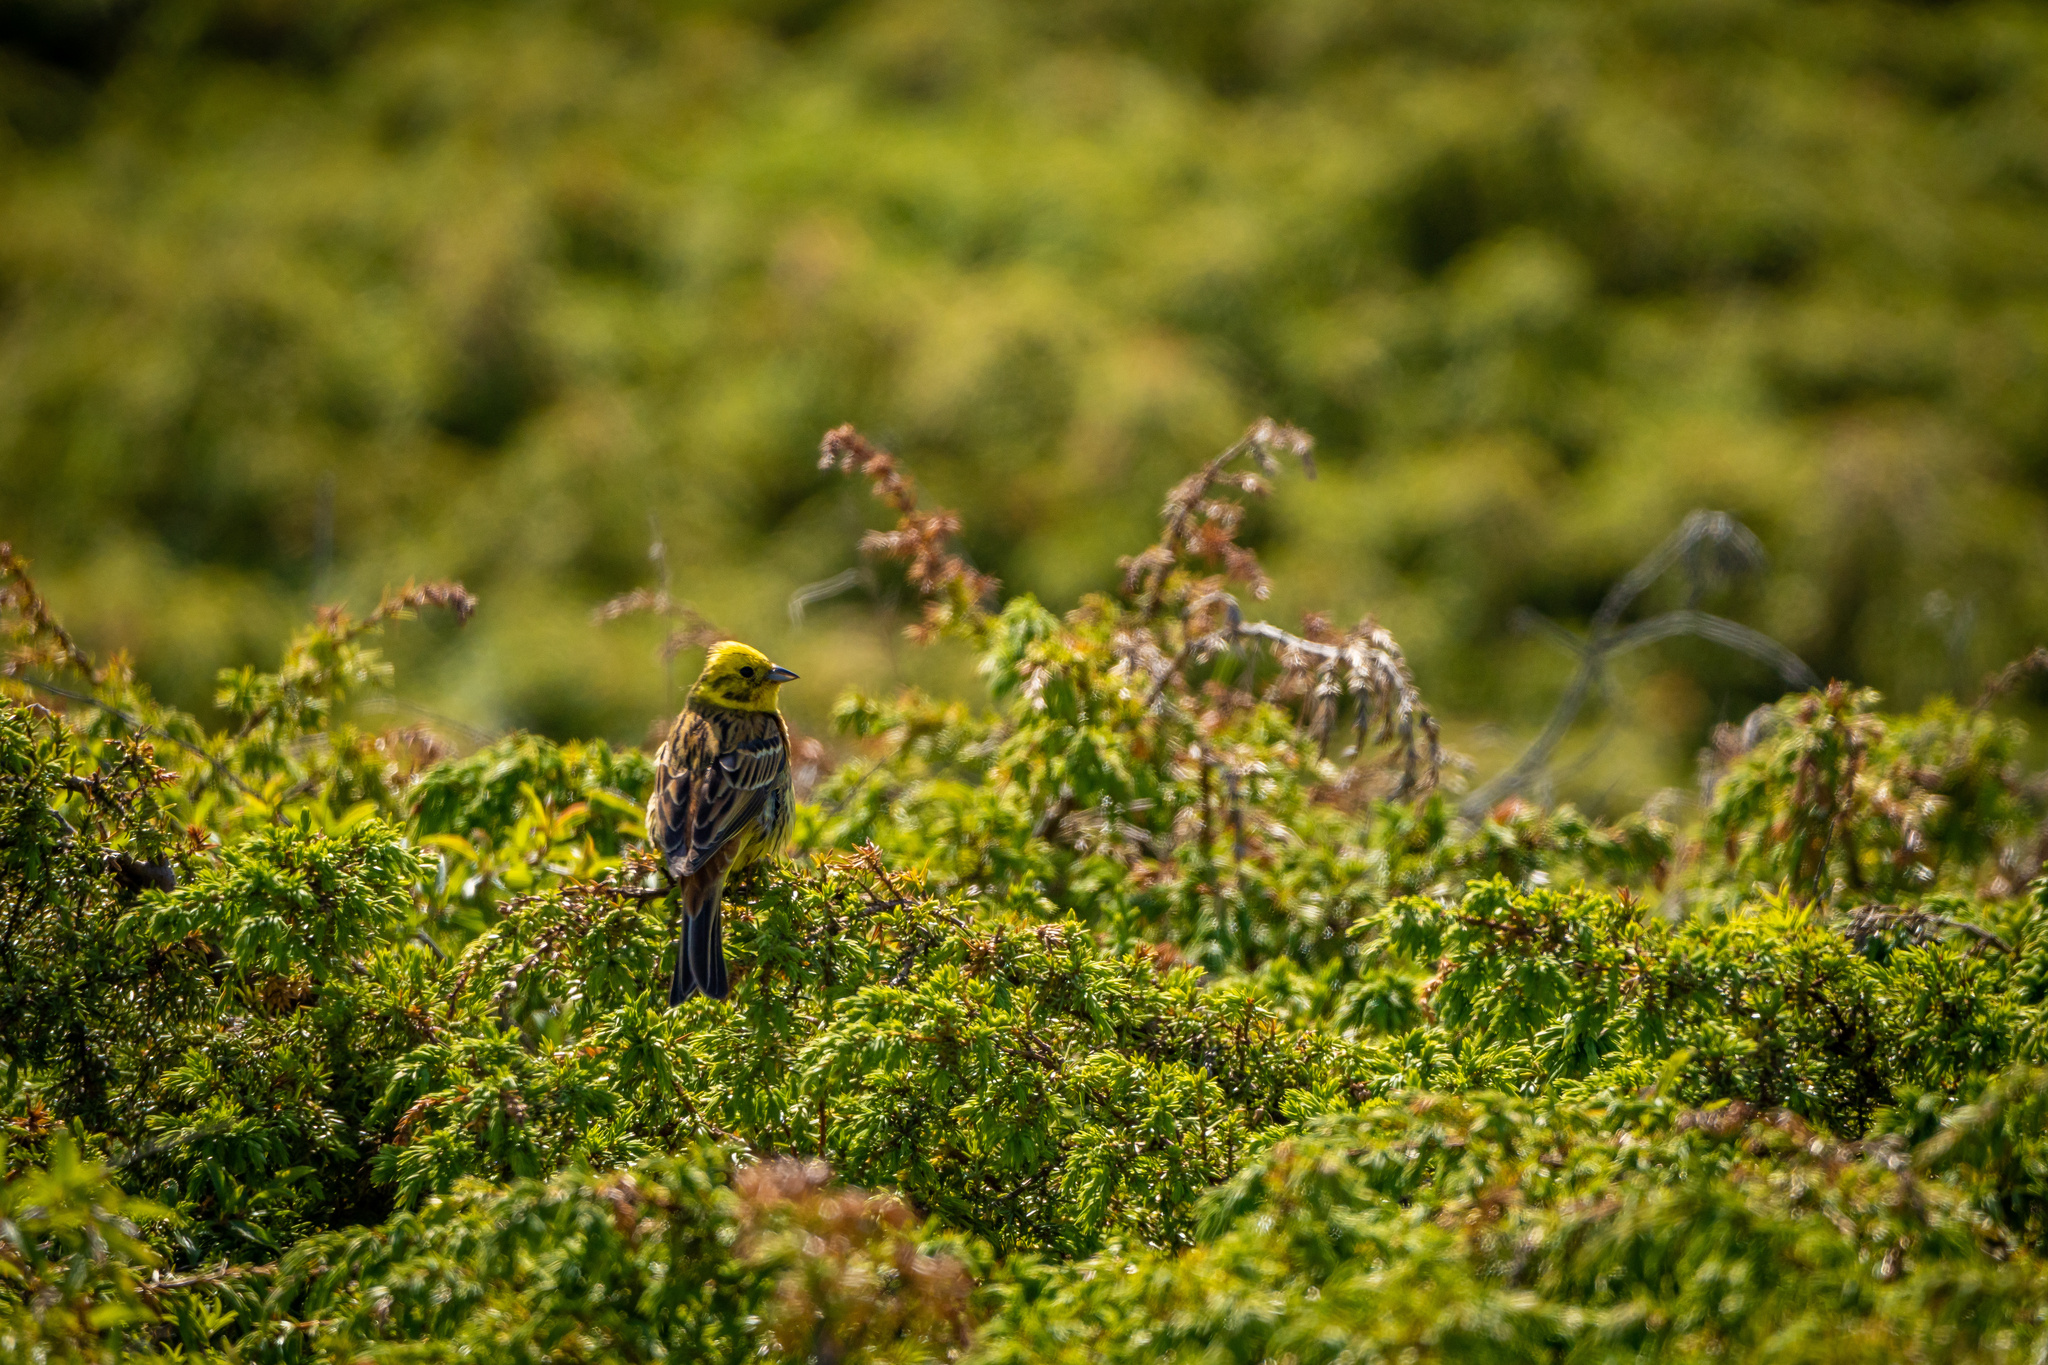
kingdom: Animalia
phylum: Chordata
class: Aves
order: Passeriformes
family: Emberizidae
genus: Emberiza
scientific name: Emberiza citrinella
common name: Yellowhammer
